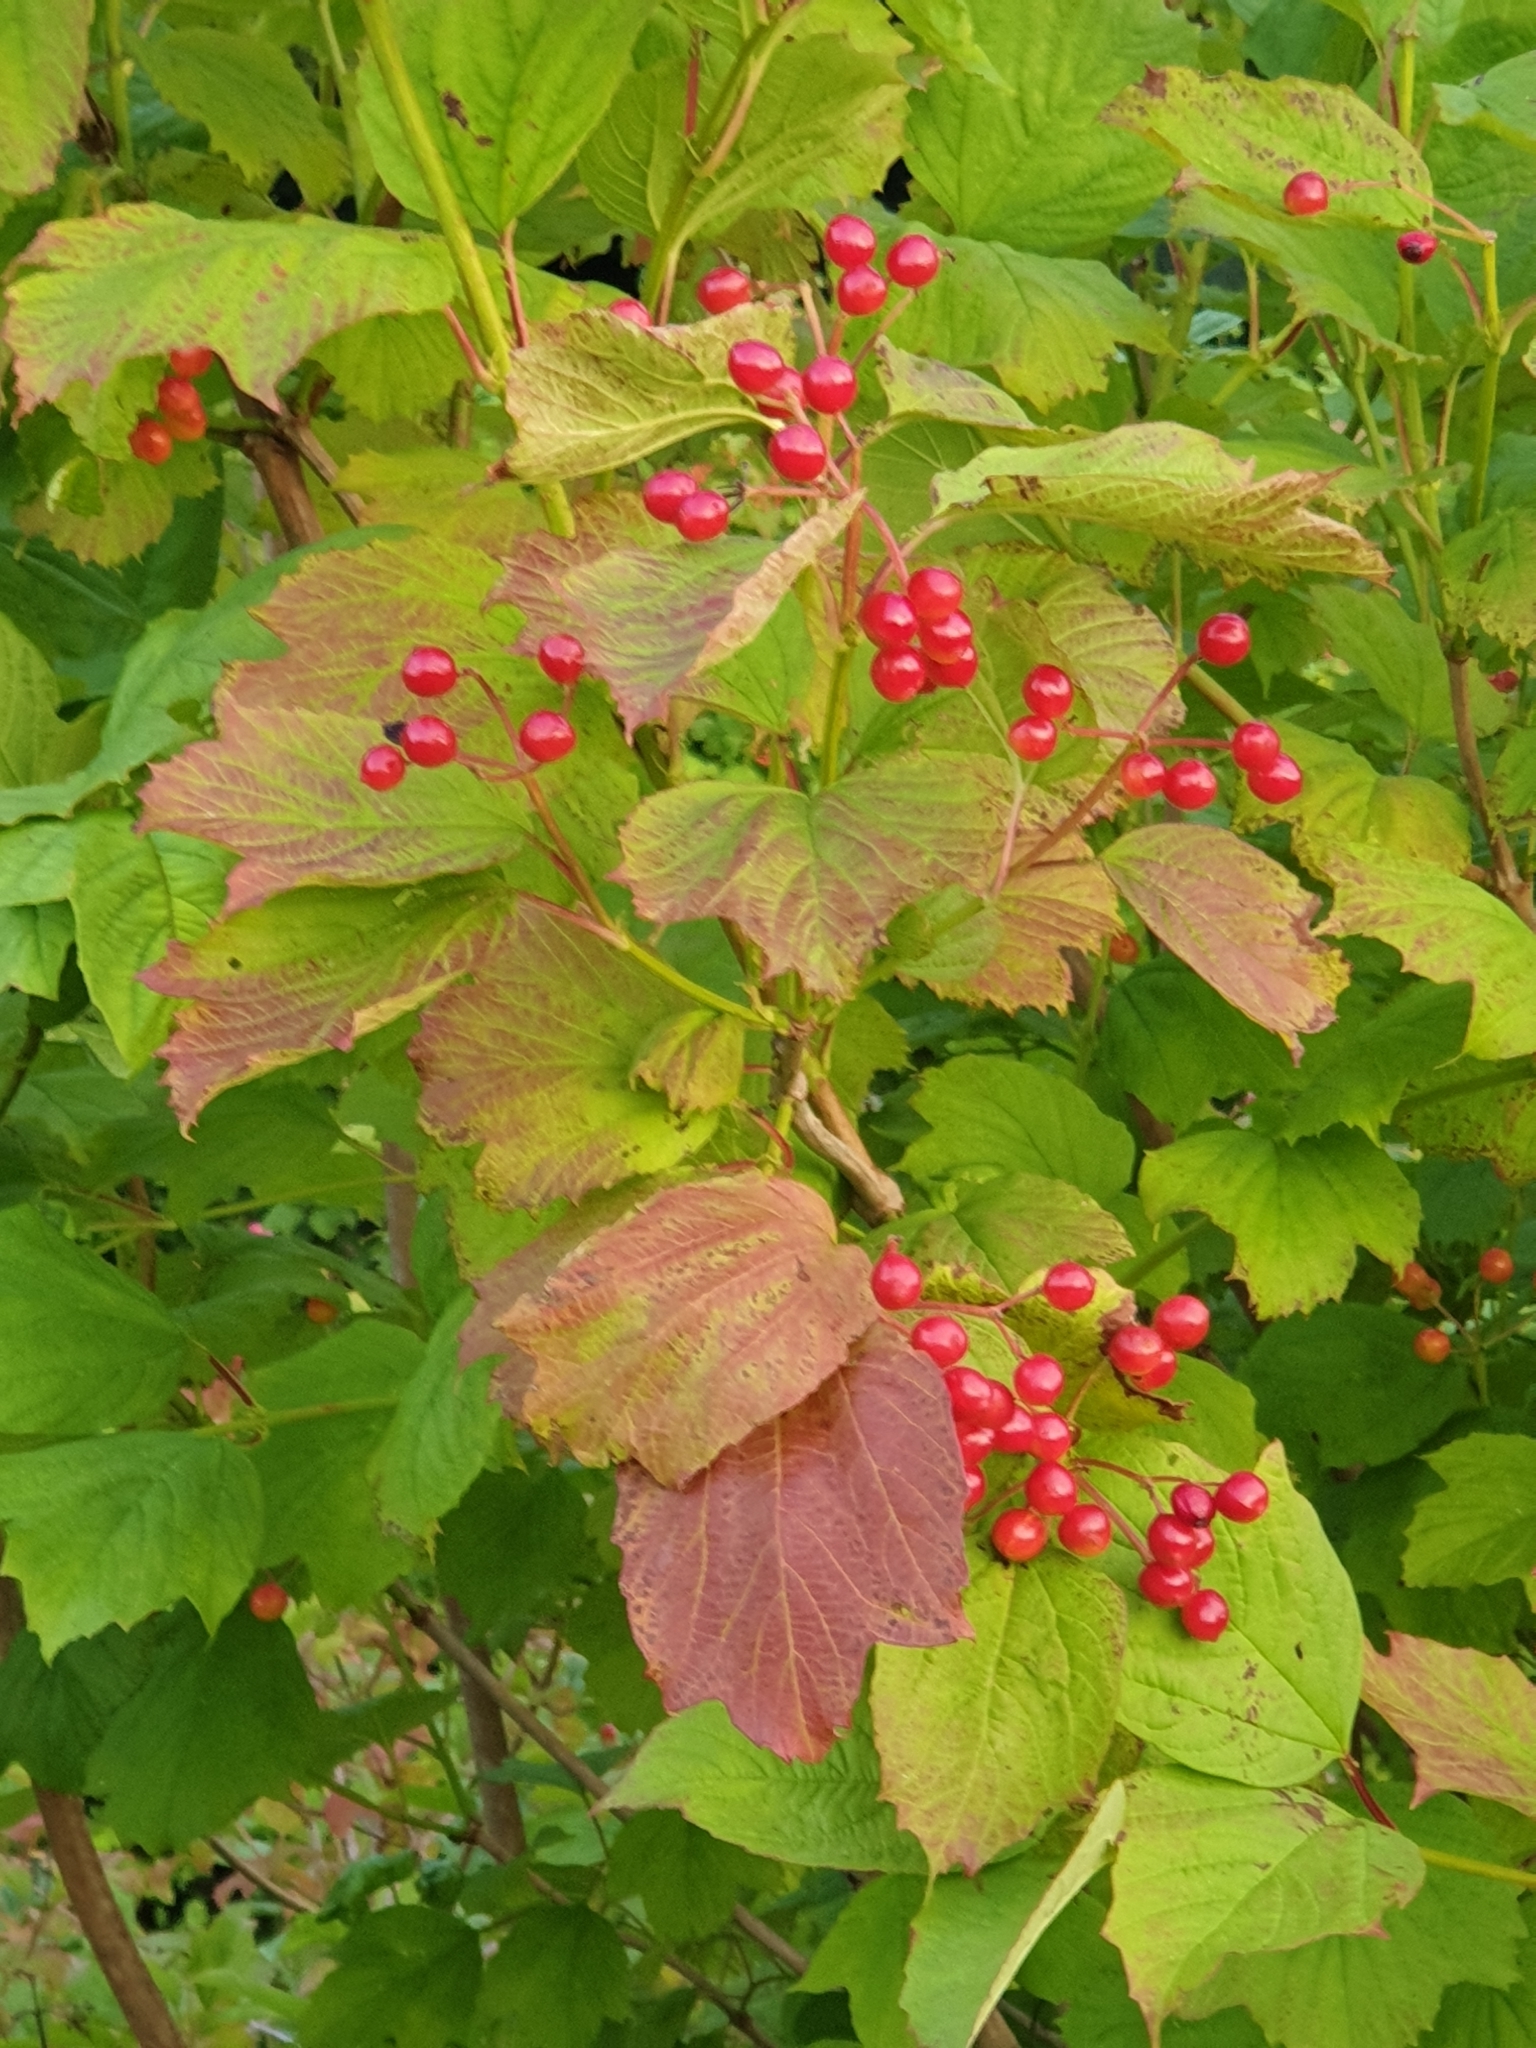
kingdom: Plantae
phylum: Tracheophyta
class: Magnoliopsida
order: Dipsacales
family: Viburnaceae
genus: Viburnum
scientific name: Viburnum opulus
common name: Guelder-rose
